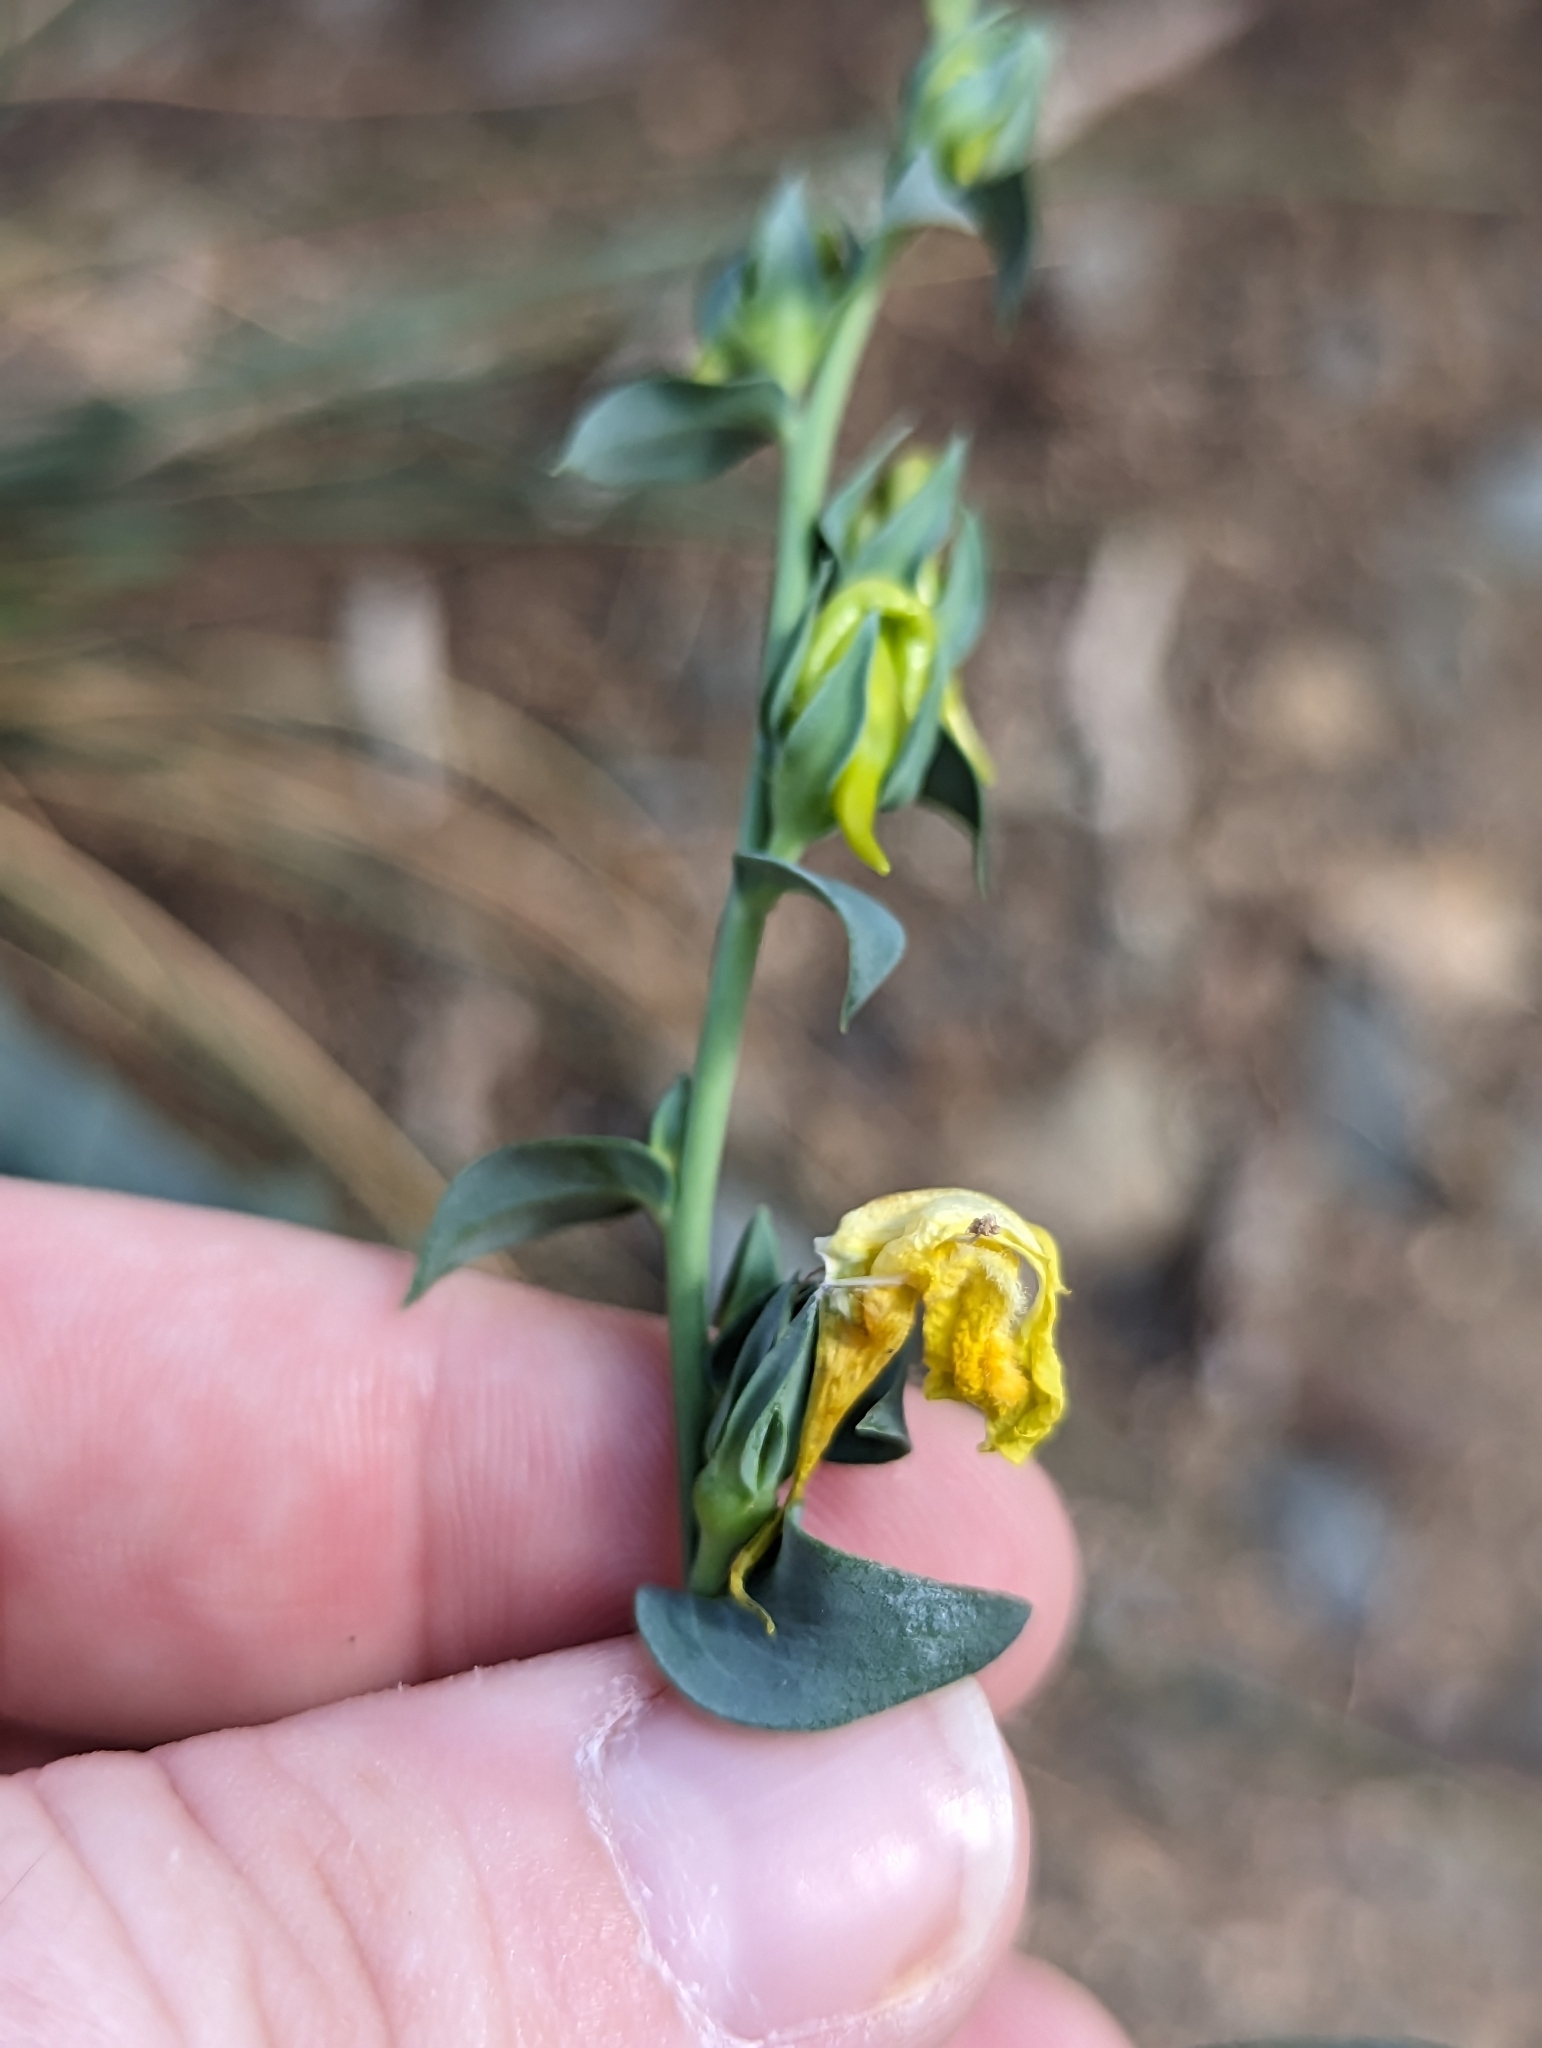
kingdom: Plantae
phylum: Tracheophyta
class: Magnoliopsida
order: Lamiales
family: Plantaginaceae
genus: Linaria
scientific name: Linaria dalmatica
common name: Dalmatian toadflax
